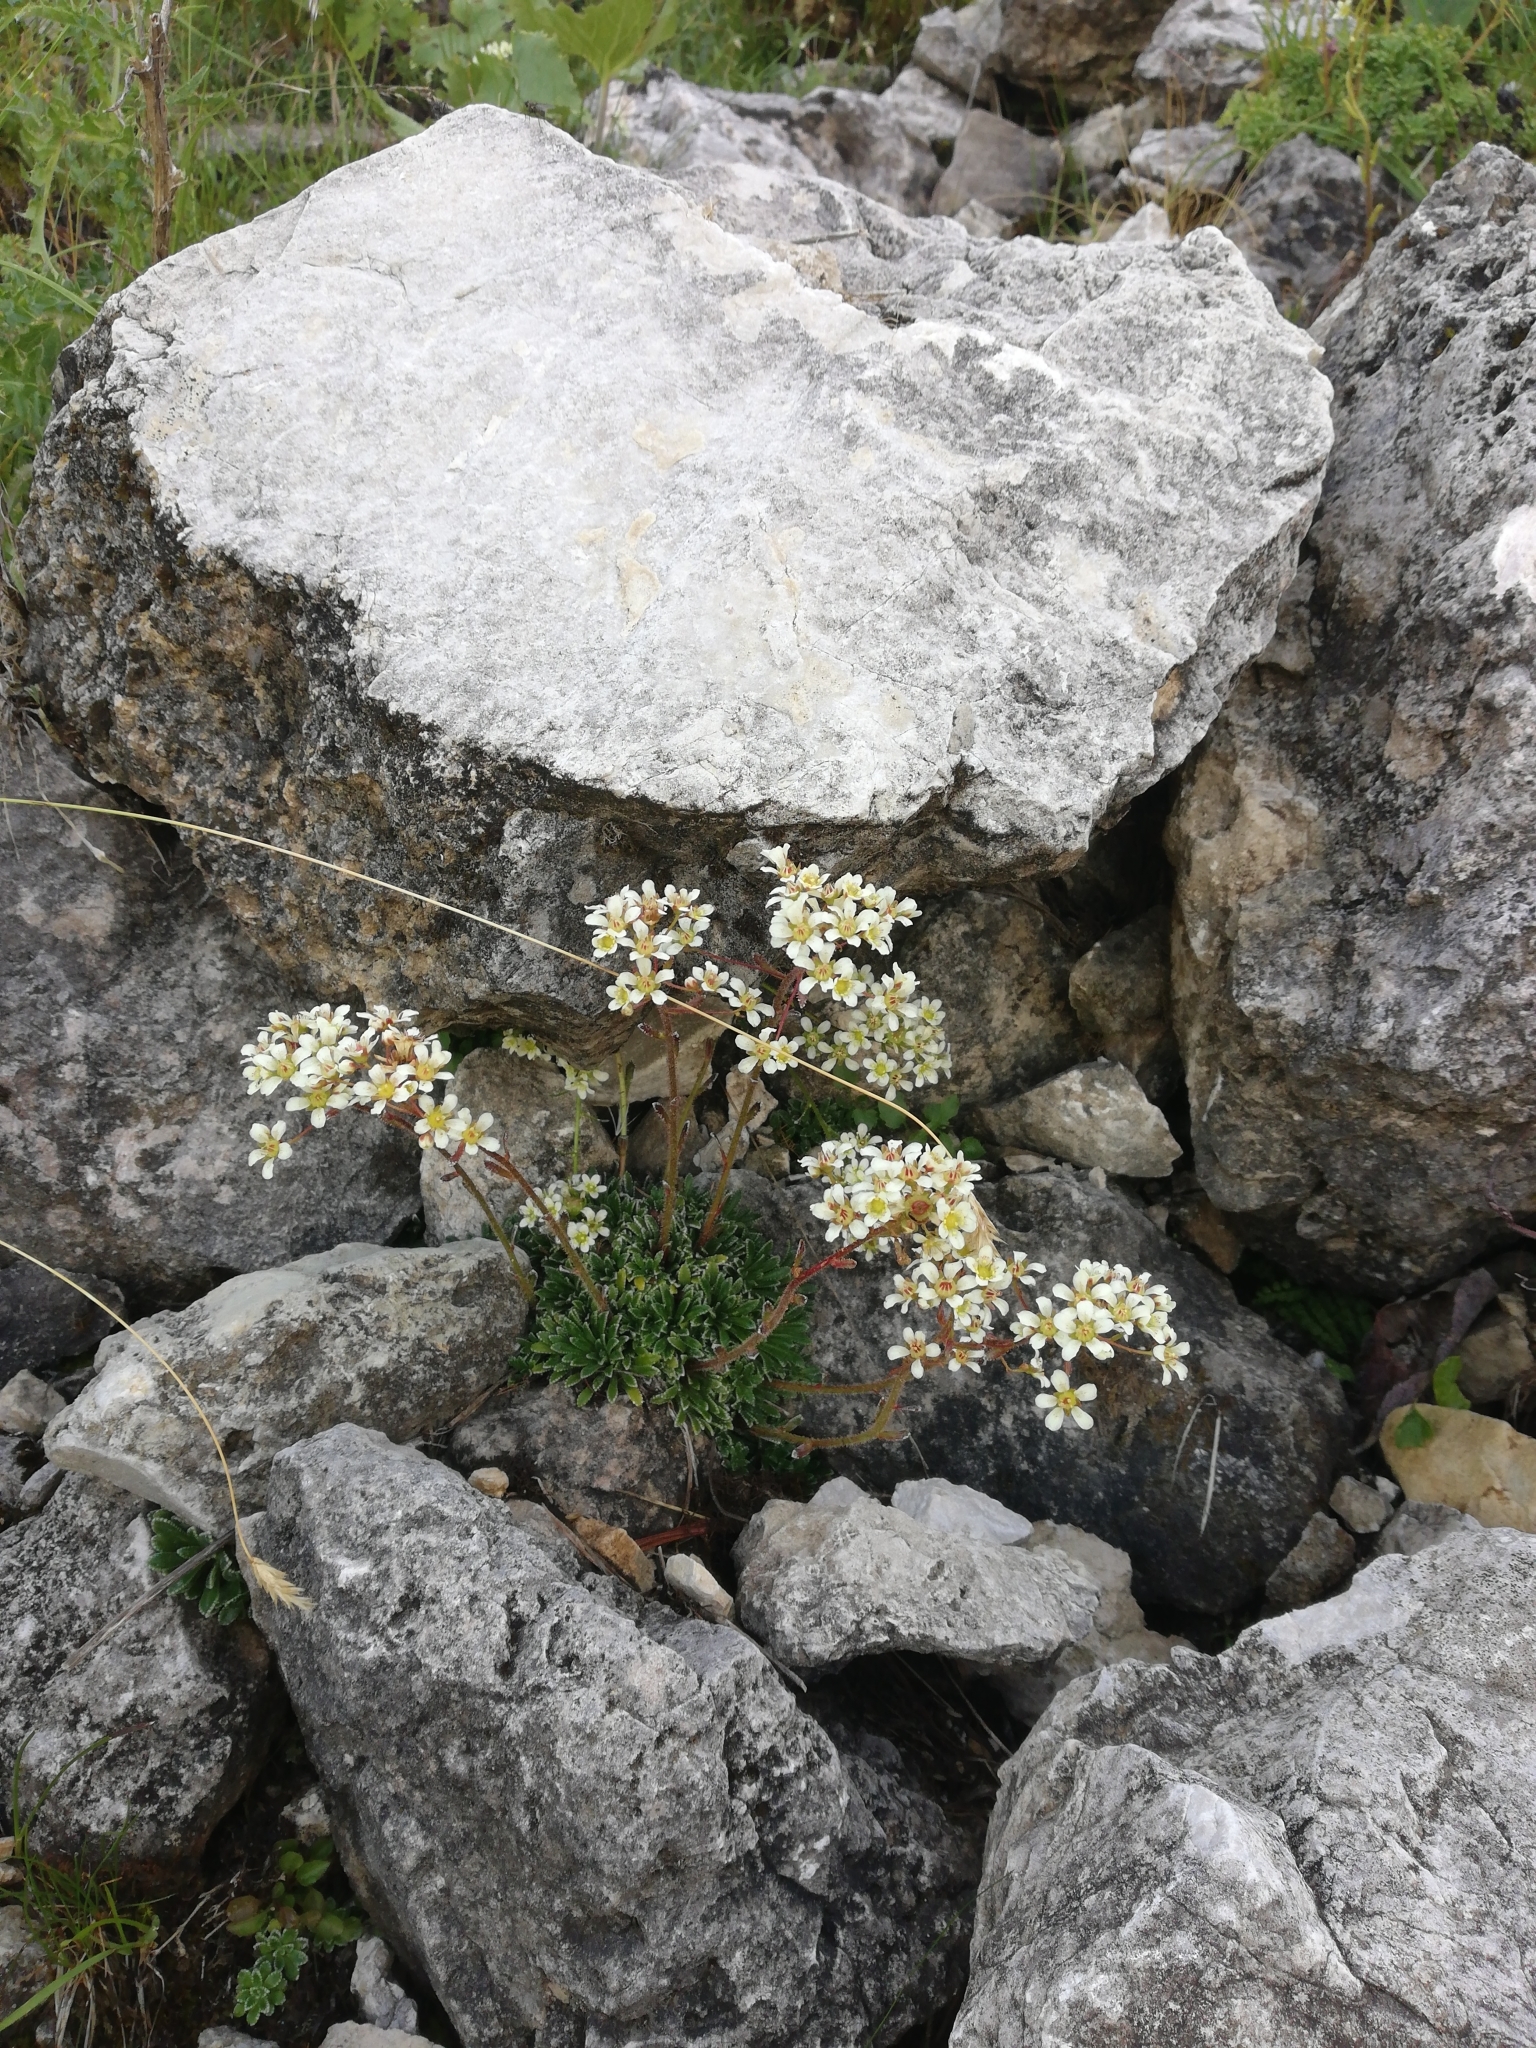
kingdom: Plantae
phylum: Tracheophyta
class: Magnoliopsida
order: Saxifragales
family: Saxifragaceae
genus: Saxifraga
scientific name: Saxifraga paniculata
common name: Livelong saxifrage
